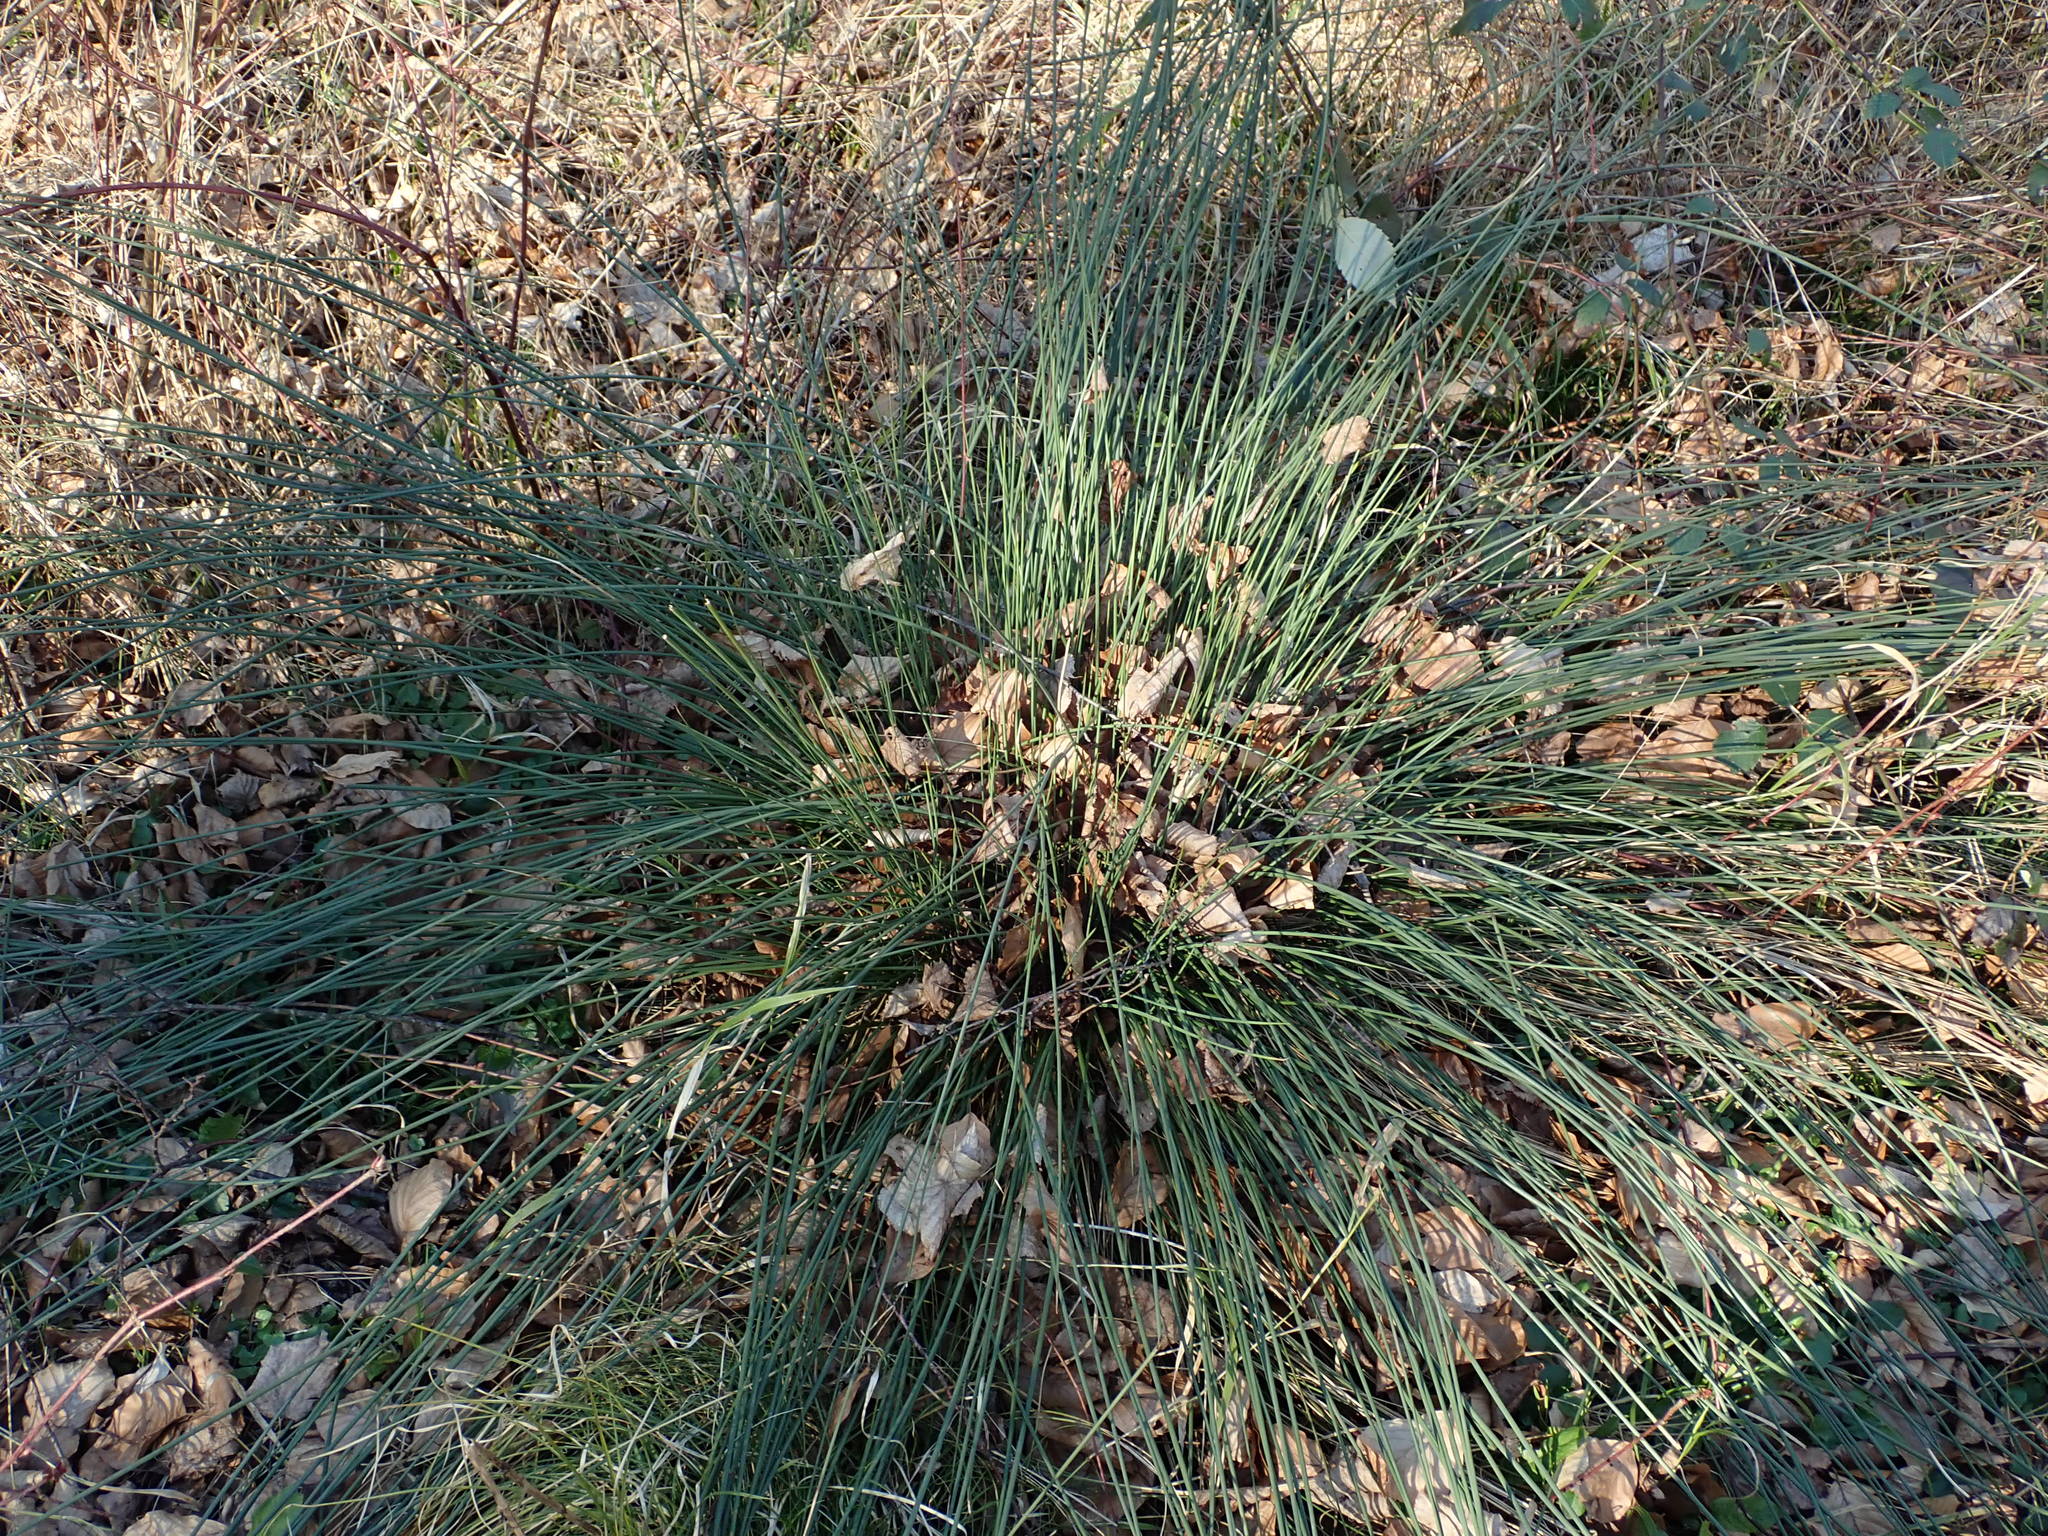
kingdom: Plantae
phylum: Tracheophyta
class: Liliopsida
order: Poales
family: Juncaceae
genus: Juncus
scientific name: Juncus inflexus
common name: Hard rush
